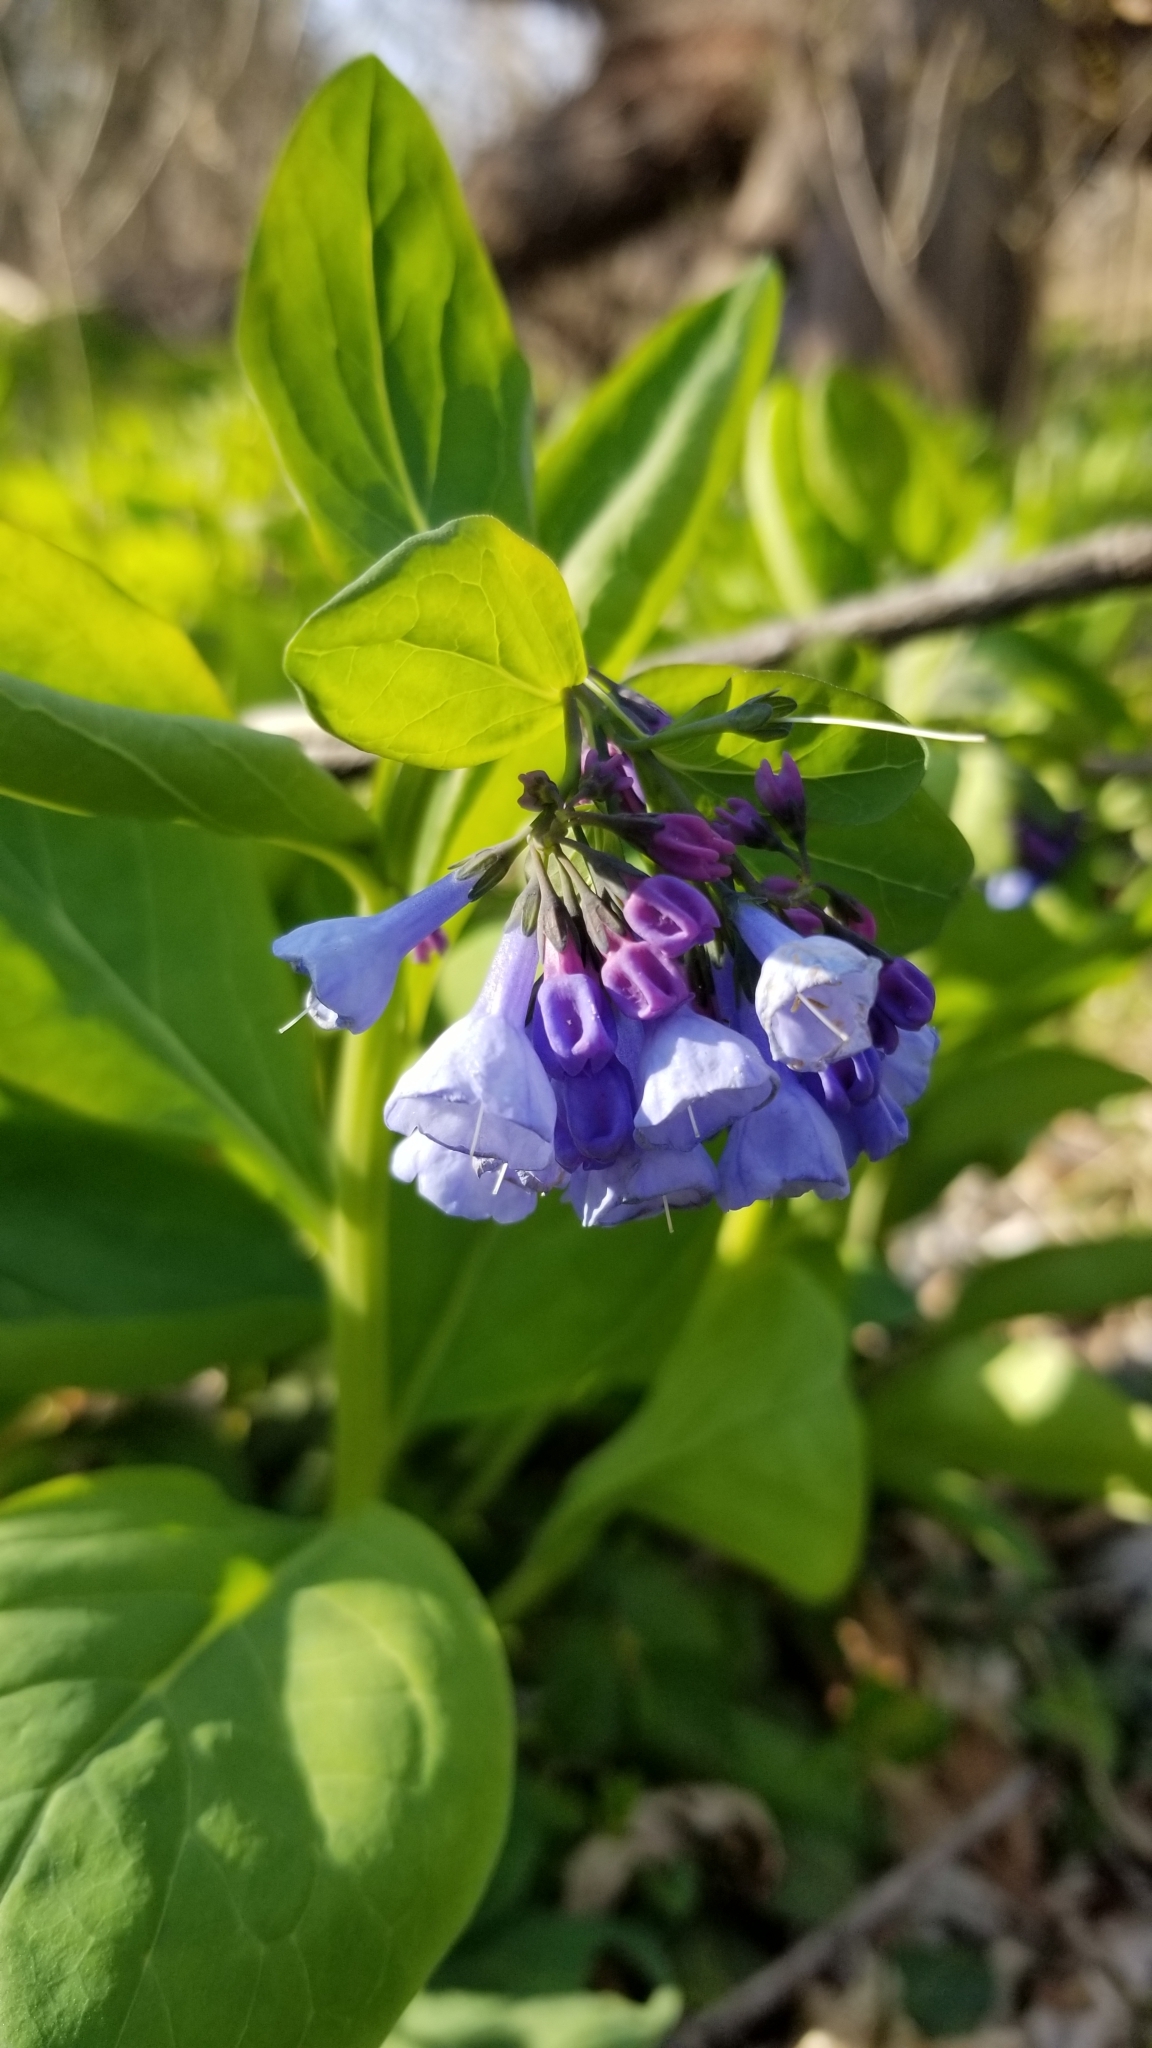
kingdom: Plantae
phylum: Tracheophyta
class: Magnoliopsida
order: Boraginales
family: Boraginaceae
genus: Mertensia
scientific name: Mertensia virginica
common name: Virginia bluebells
